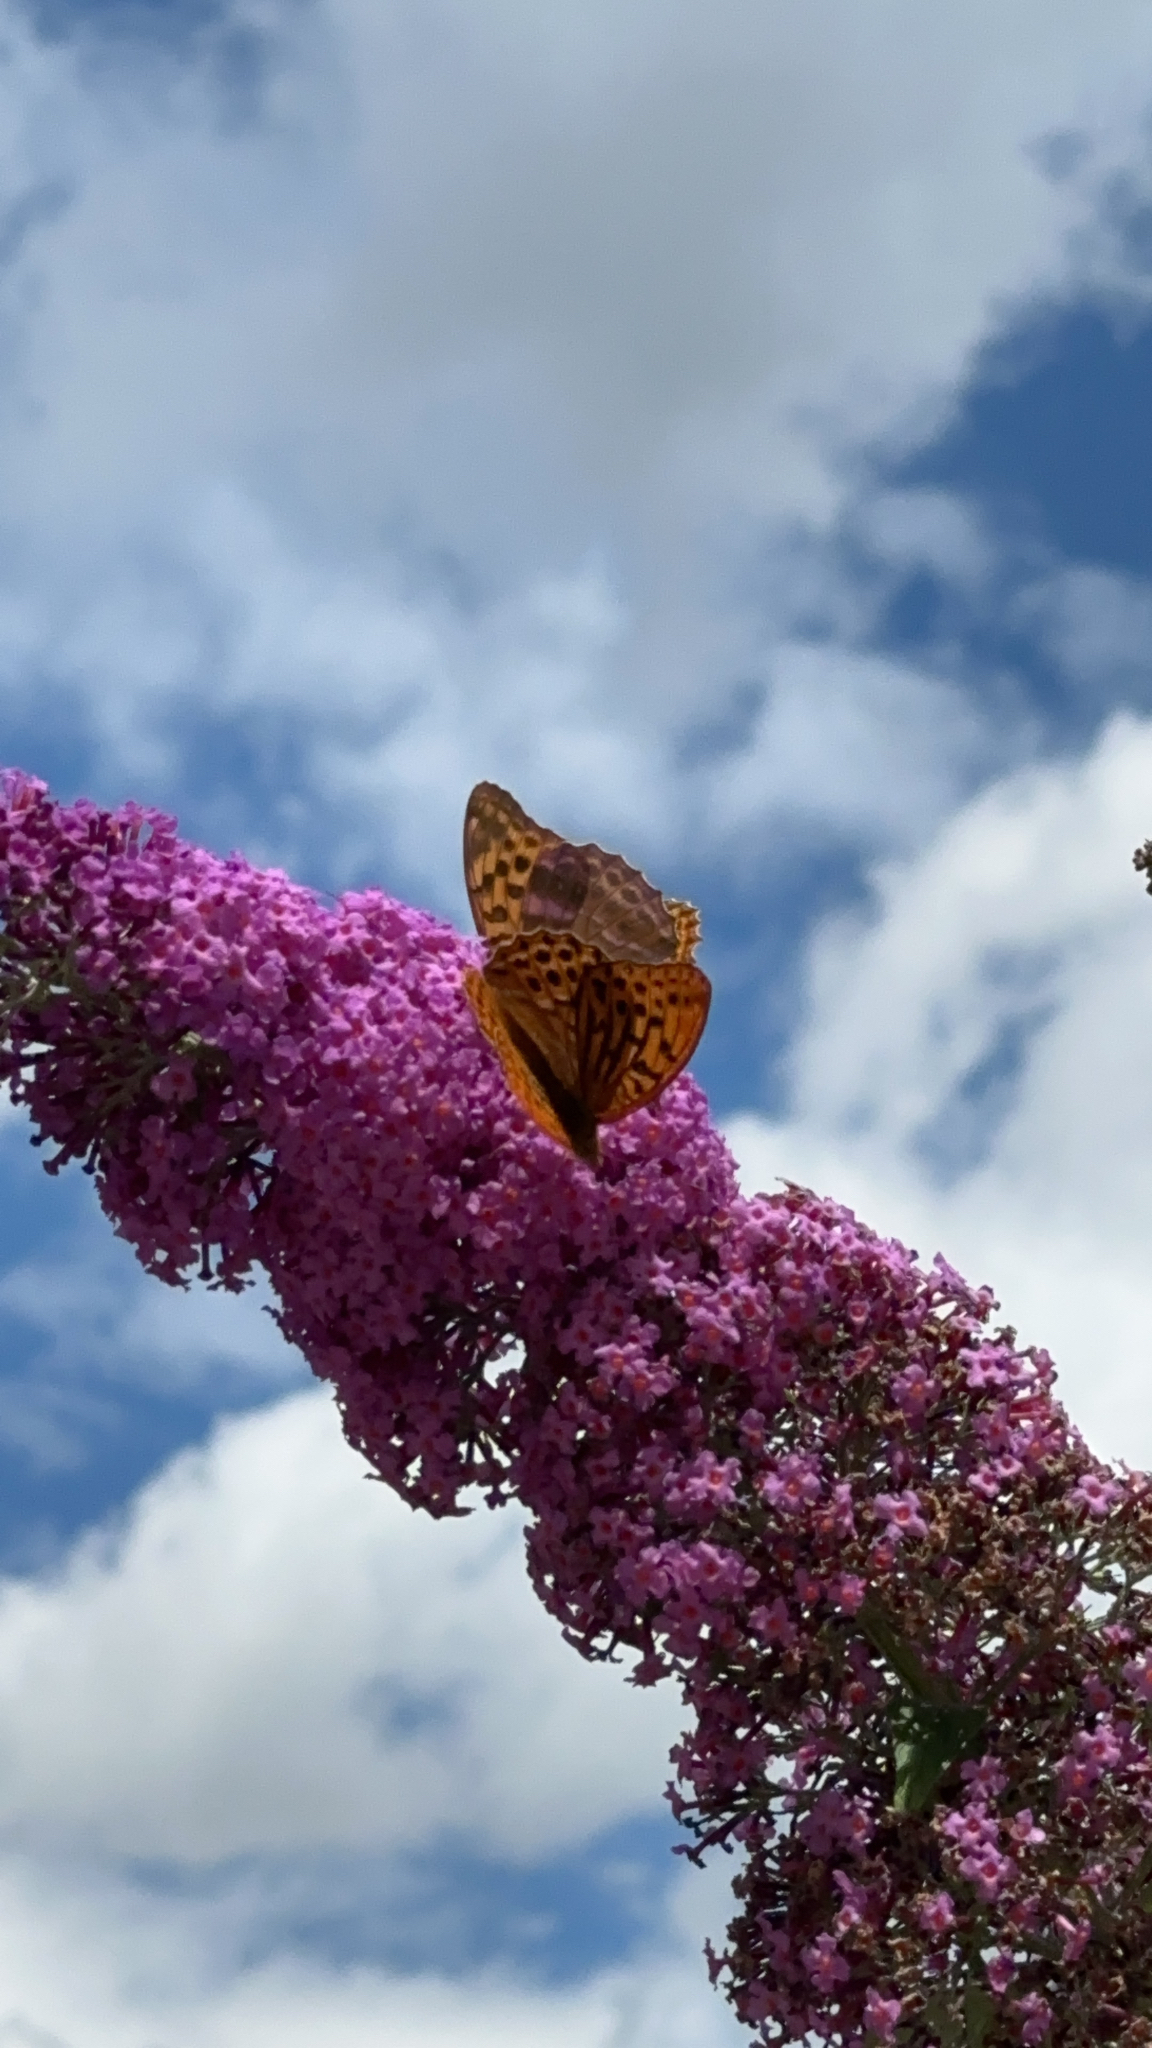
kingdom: Animalia
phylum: Arthropoda
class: Insecta
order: Lepidoptera
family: Nymphalidae
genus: Argynnis
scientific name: Argynnis paphia
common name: Silver-washed fritillary
